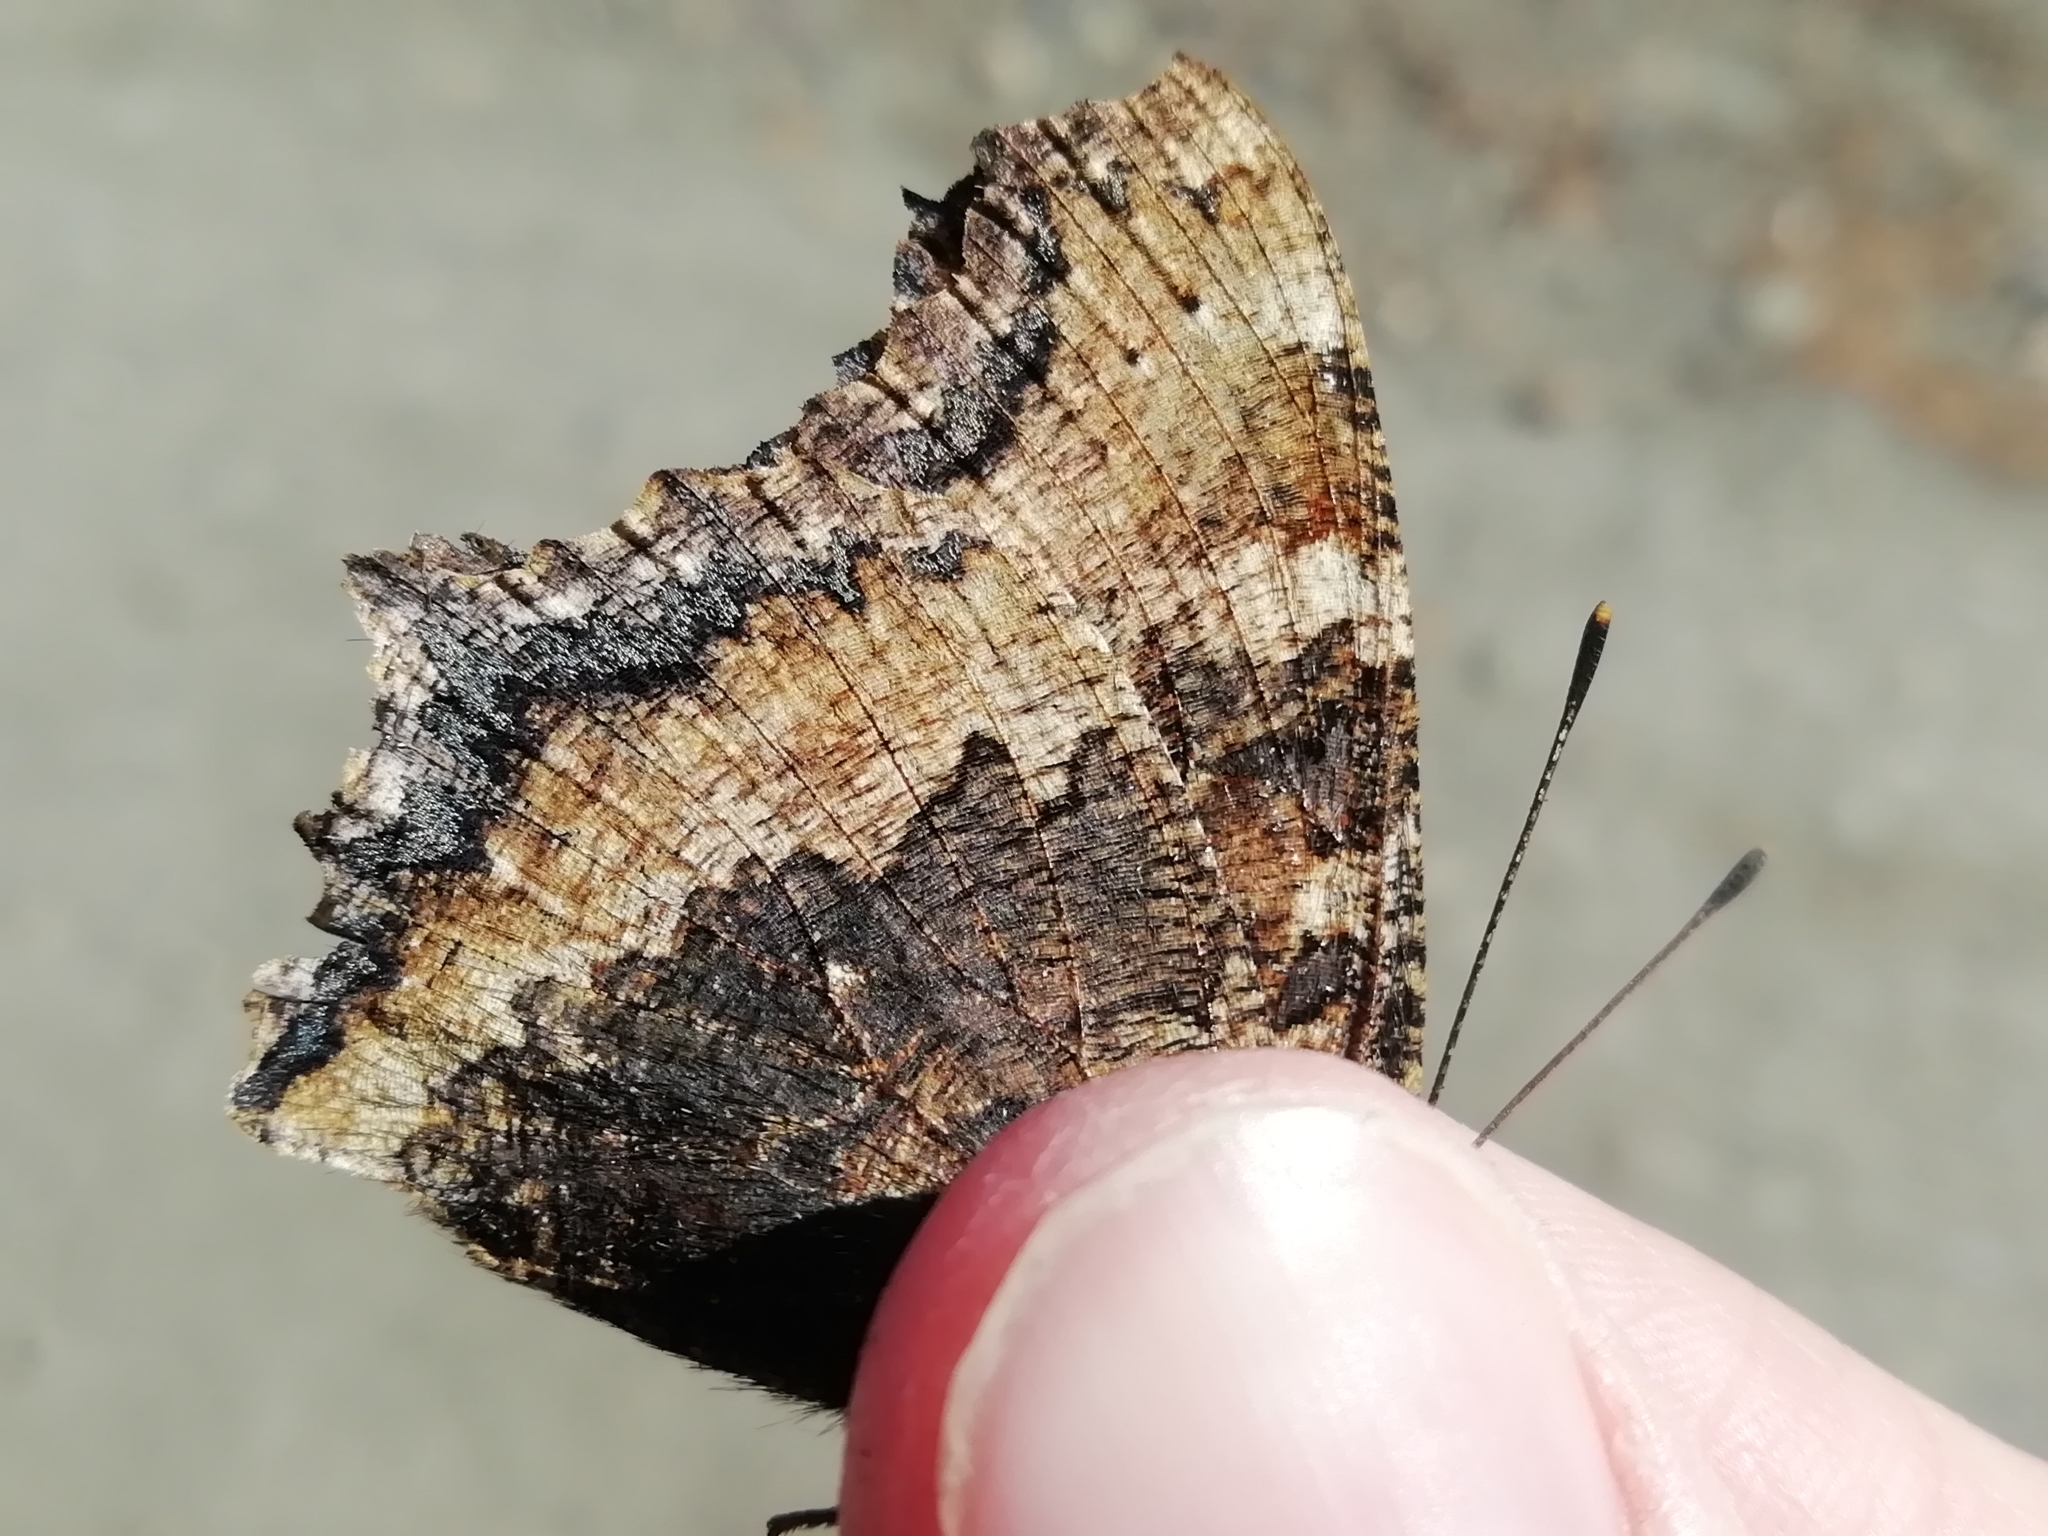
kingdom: Animalia
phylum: Arthropoda
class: Insecta
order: Lepidoptera
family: Nymphalidae
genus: Nymphalis
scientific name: Nymphalis xanthomelas
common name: Scarce tortoiseshell
